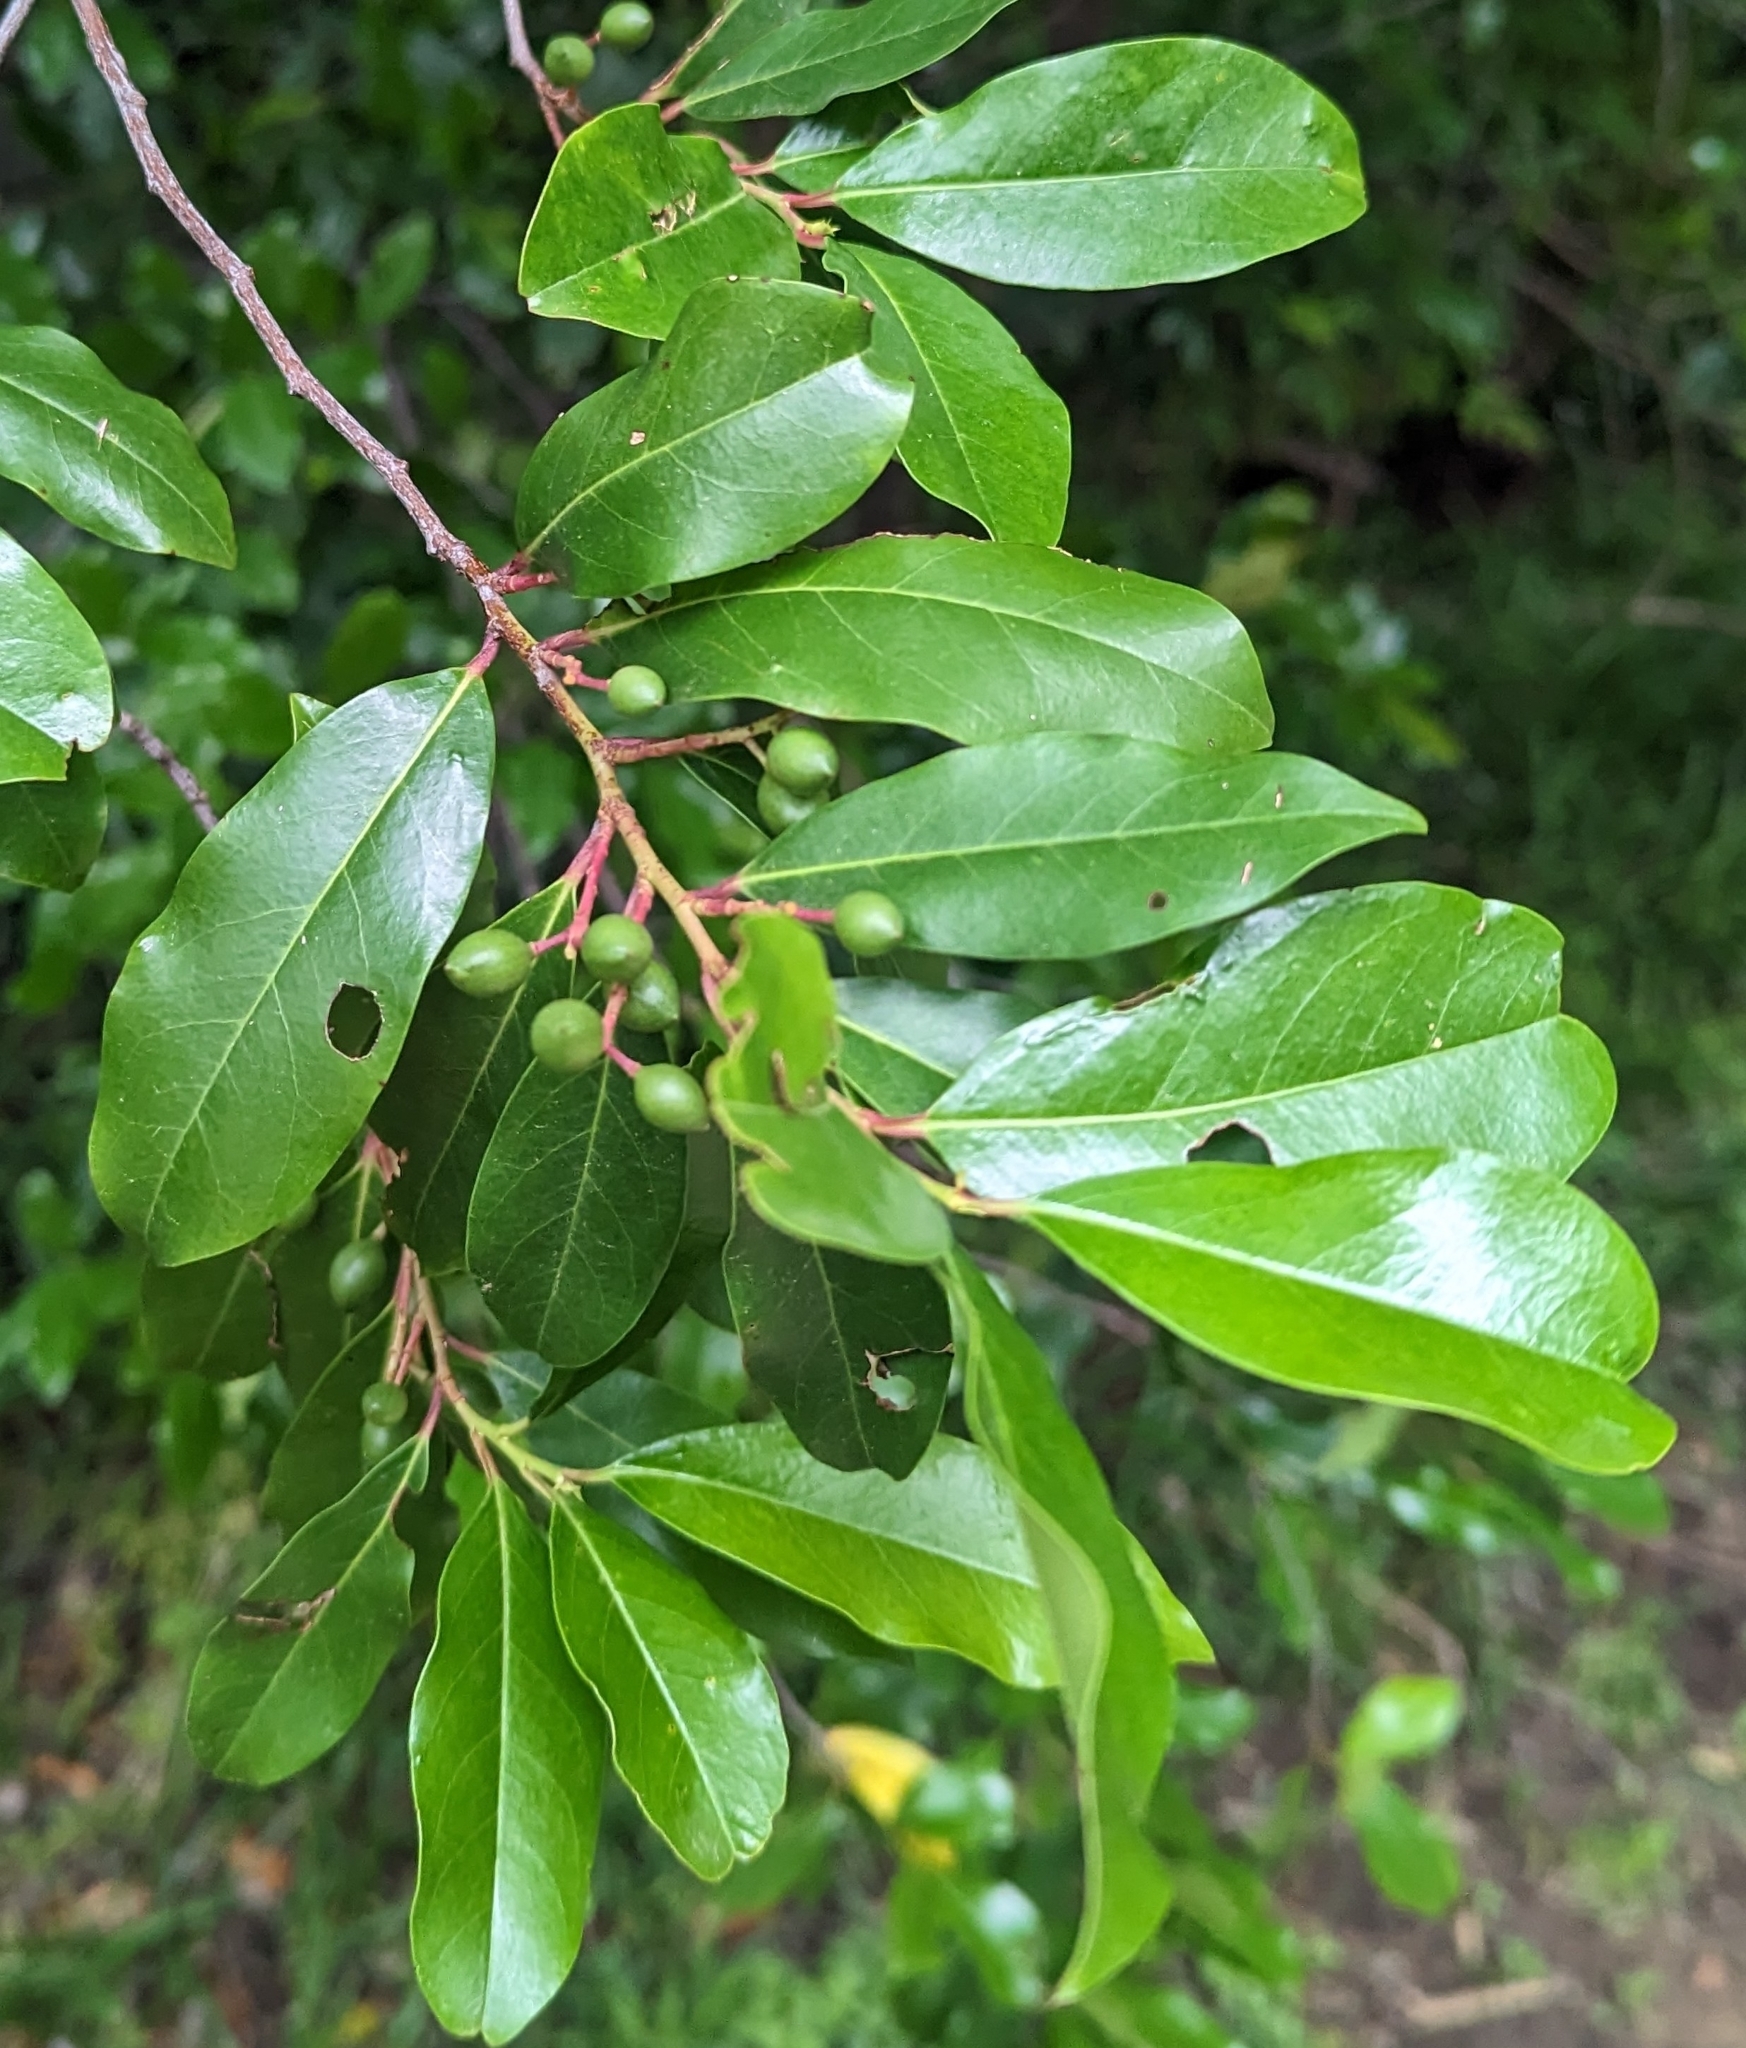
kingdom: Plantae
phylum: Tracheophyta
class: Magnoliopsida
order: Rosales
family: Rosaceae
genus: Prunus
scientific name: Prunus caroliniana
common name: Carolina laurel cherry
